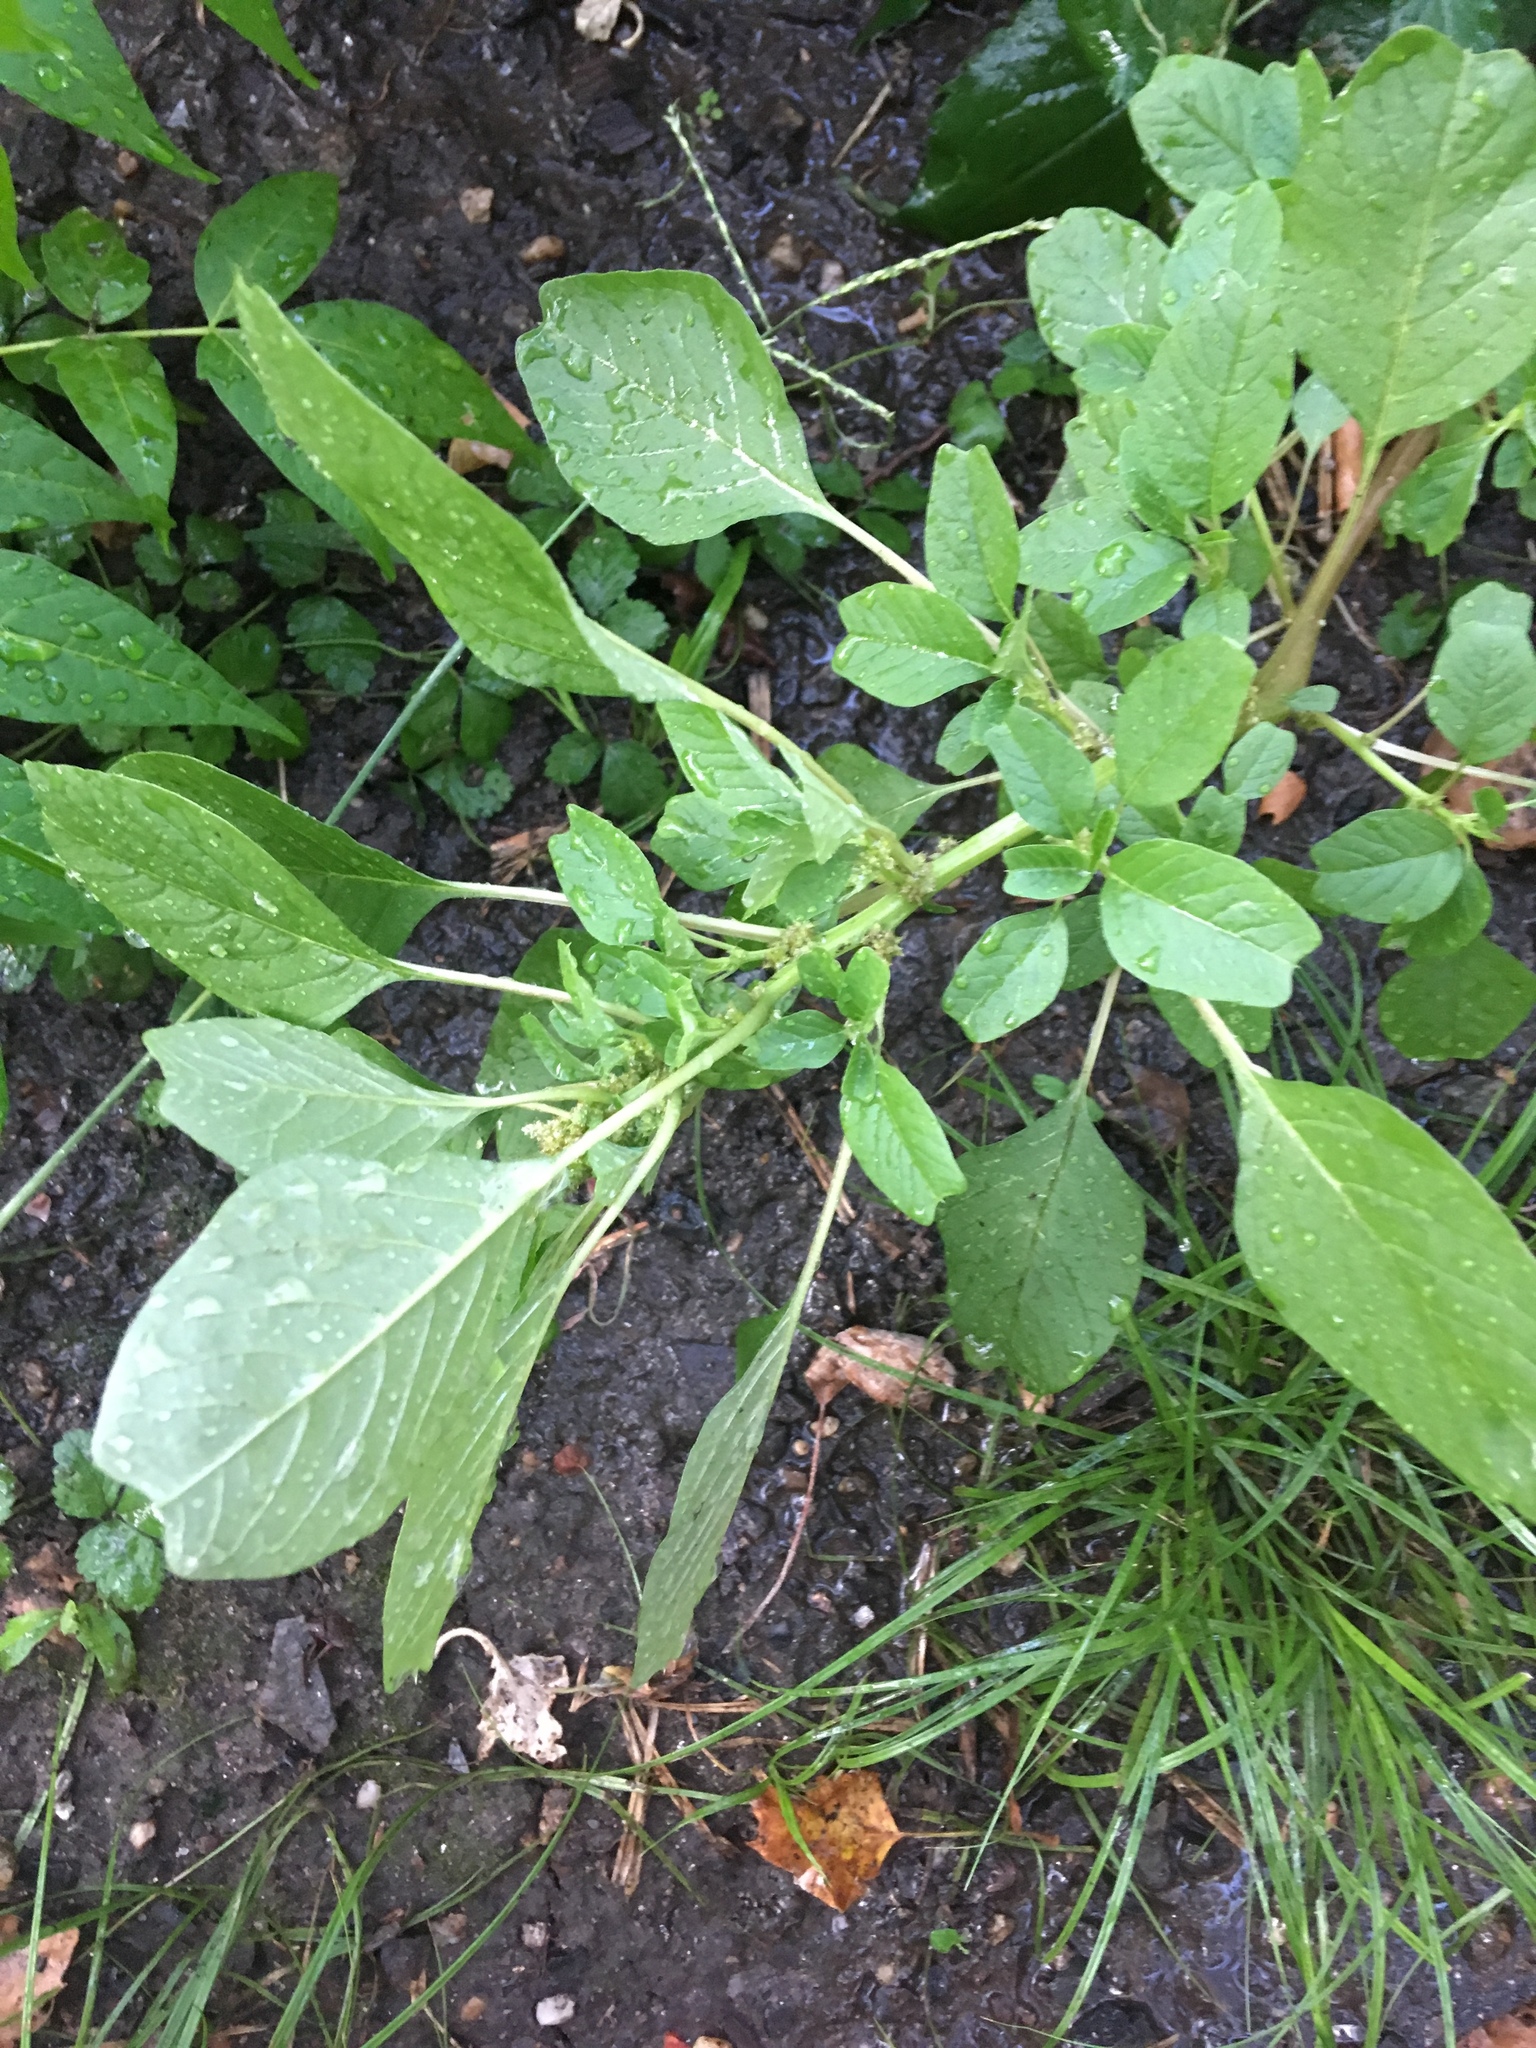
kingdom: Plantae
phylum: Tracheophyta
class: Magnoliopsida
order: Caryophyllales
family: Amaranthaceae
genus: Amaranthus
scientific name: Amaranthus blitum
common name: Purple amaranth
